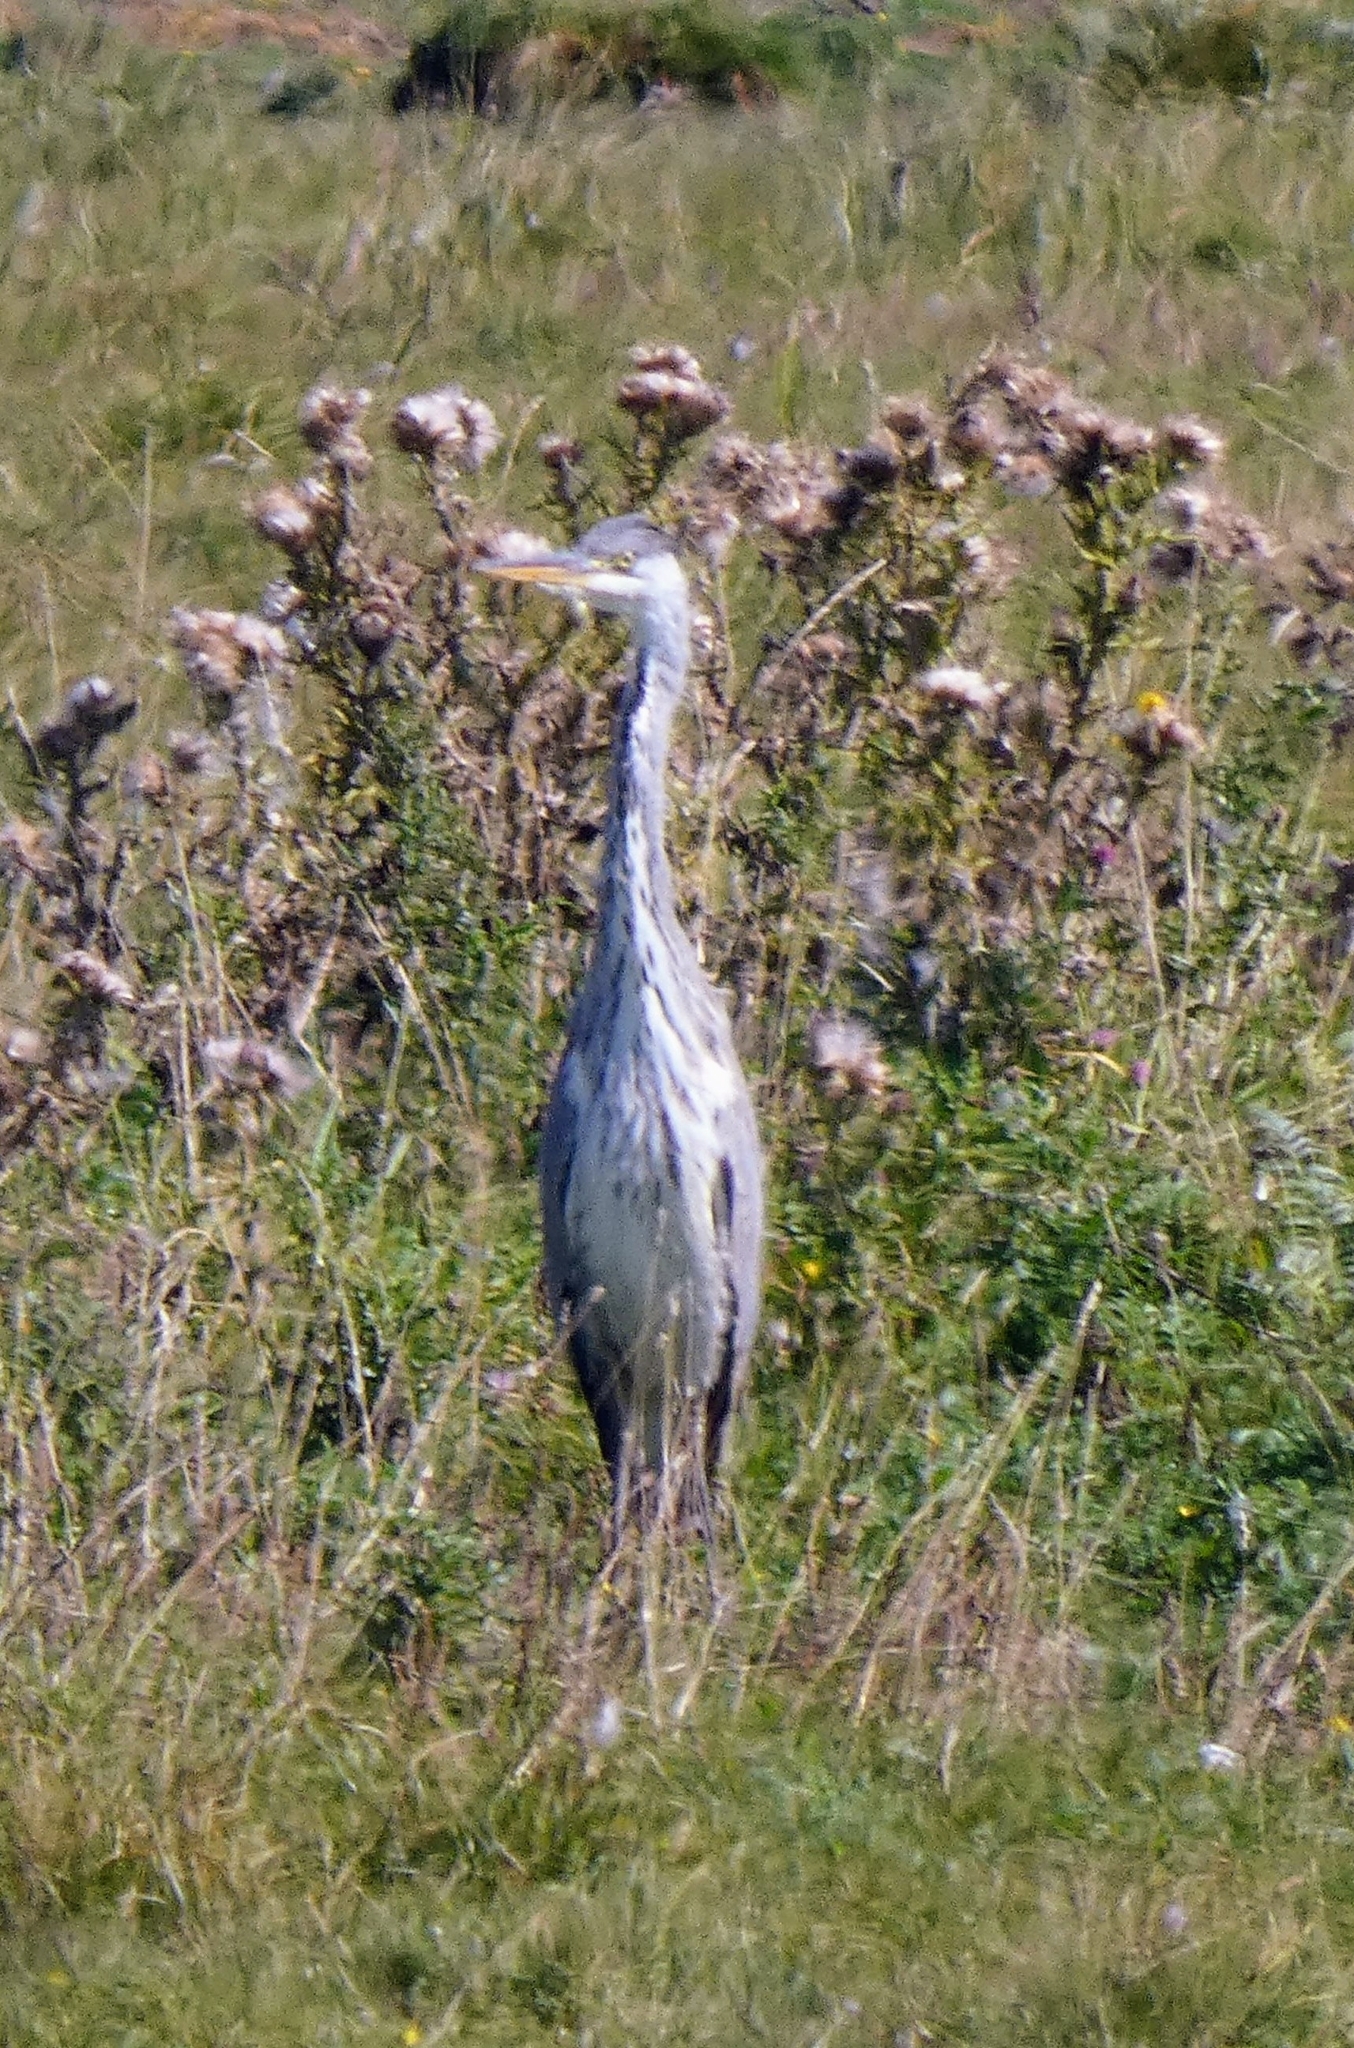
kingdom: Animalia
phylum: Chordata
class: Aves
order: Pelecaniformes
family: Ardeidae
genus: Ardea
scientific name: Ardea cinerea
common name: Grey heron
